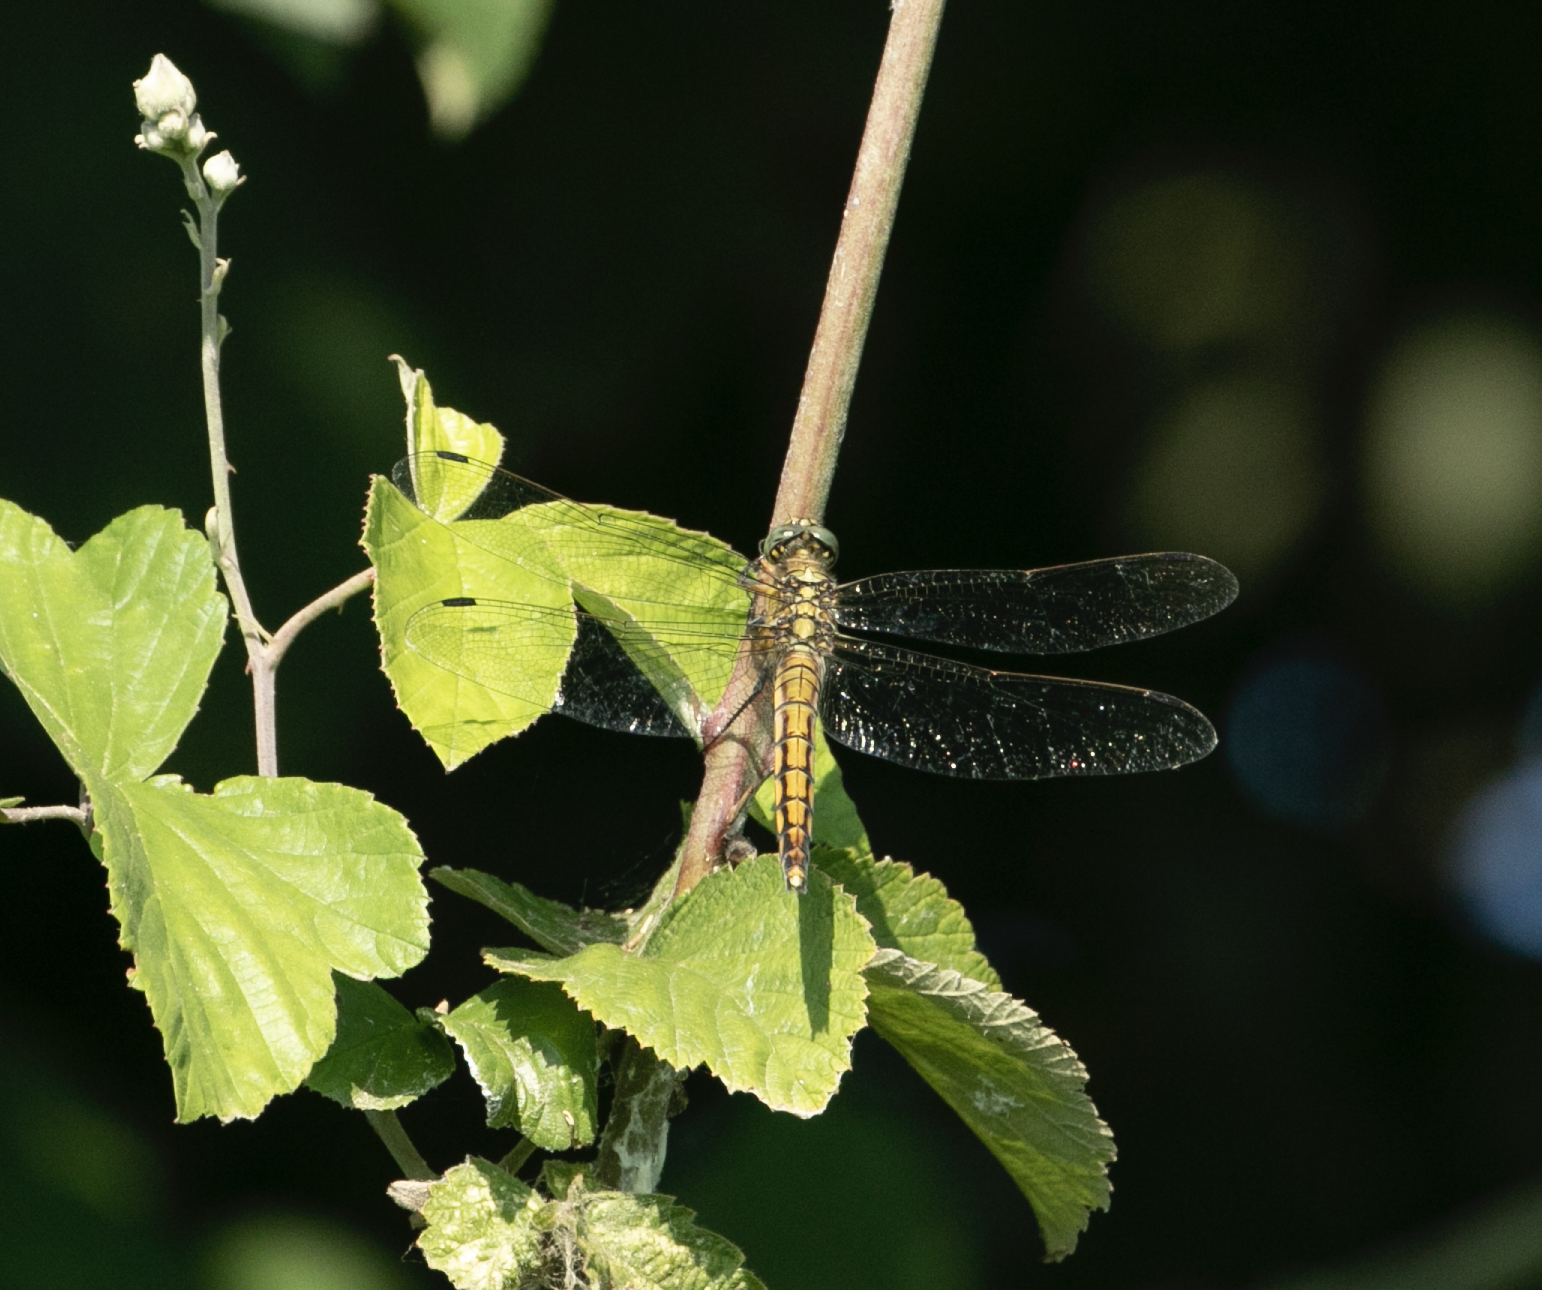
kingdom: Animalia
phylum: Arthropoda
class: Insecta
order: Odonata
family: Libellulidae
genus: Orthetrum
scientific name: Orthetrum cancellatum
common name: Black-tailed skimmer
